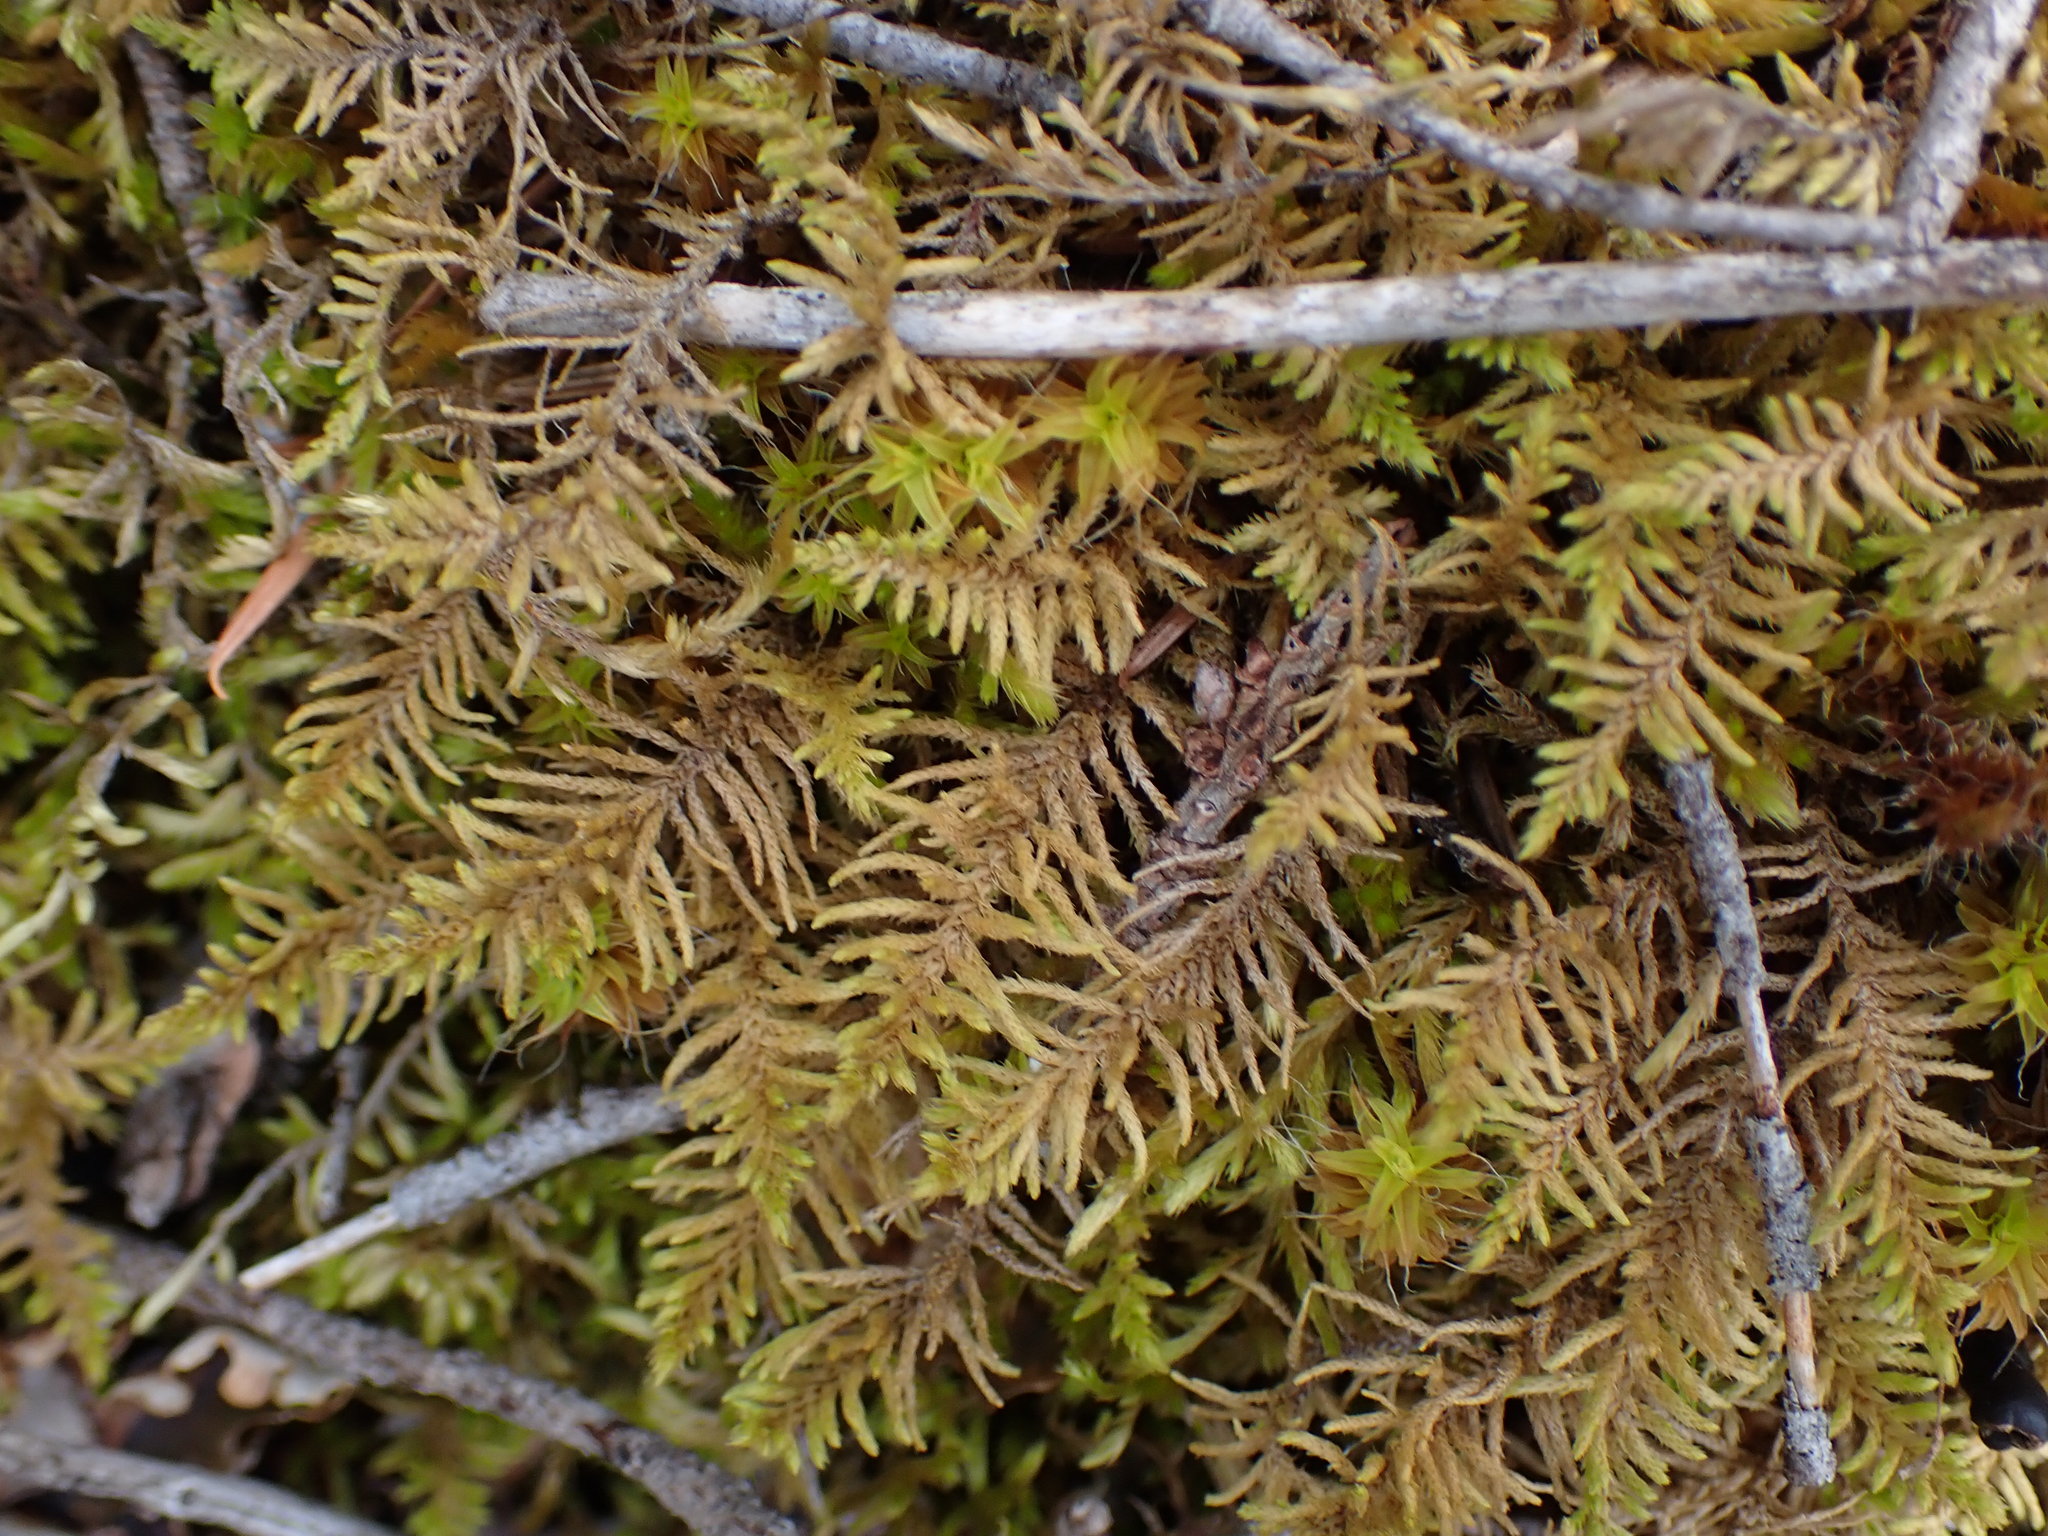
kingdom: Plantae
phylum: Bryophyta
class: Bryopsida
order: Hypnales
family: Thuidiaceae
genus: Abietinella
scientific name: Abietinella abietina
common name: Wiry fern moss
